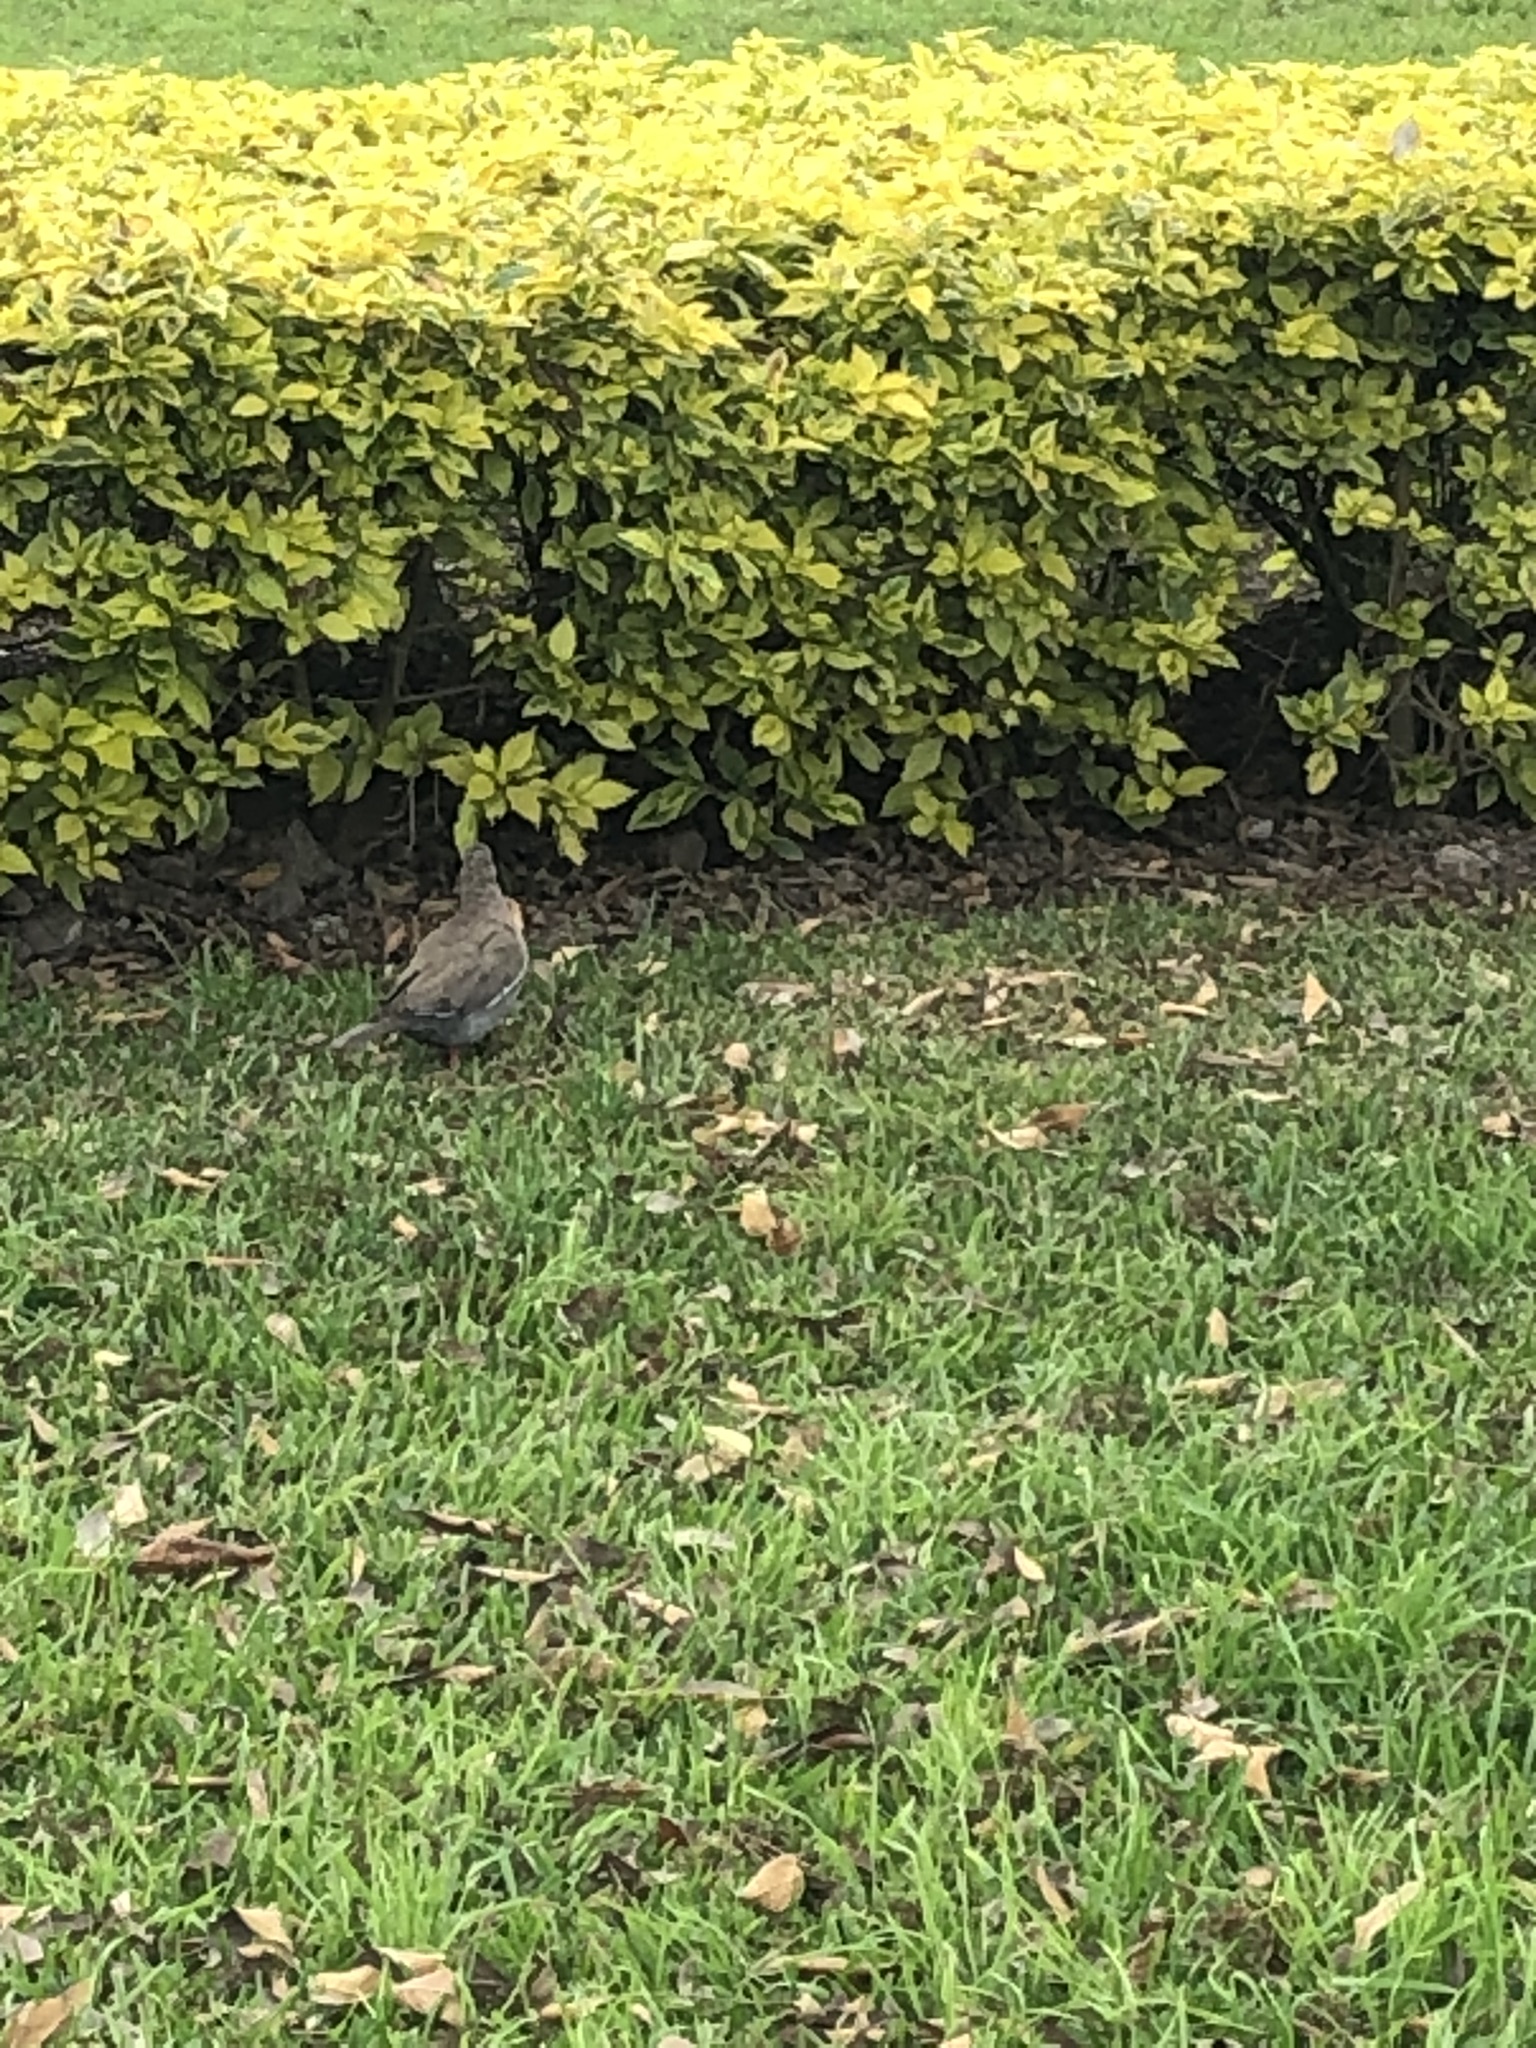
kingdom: Animalia
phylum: Chordata
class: Aves
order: Columbiformes
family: Columbidae
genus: Zenaida
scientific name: Zenaida meloda
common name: West peruvian dove
